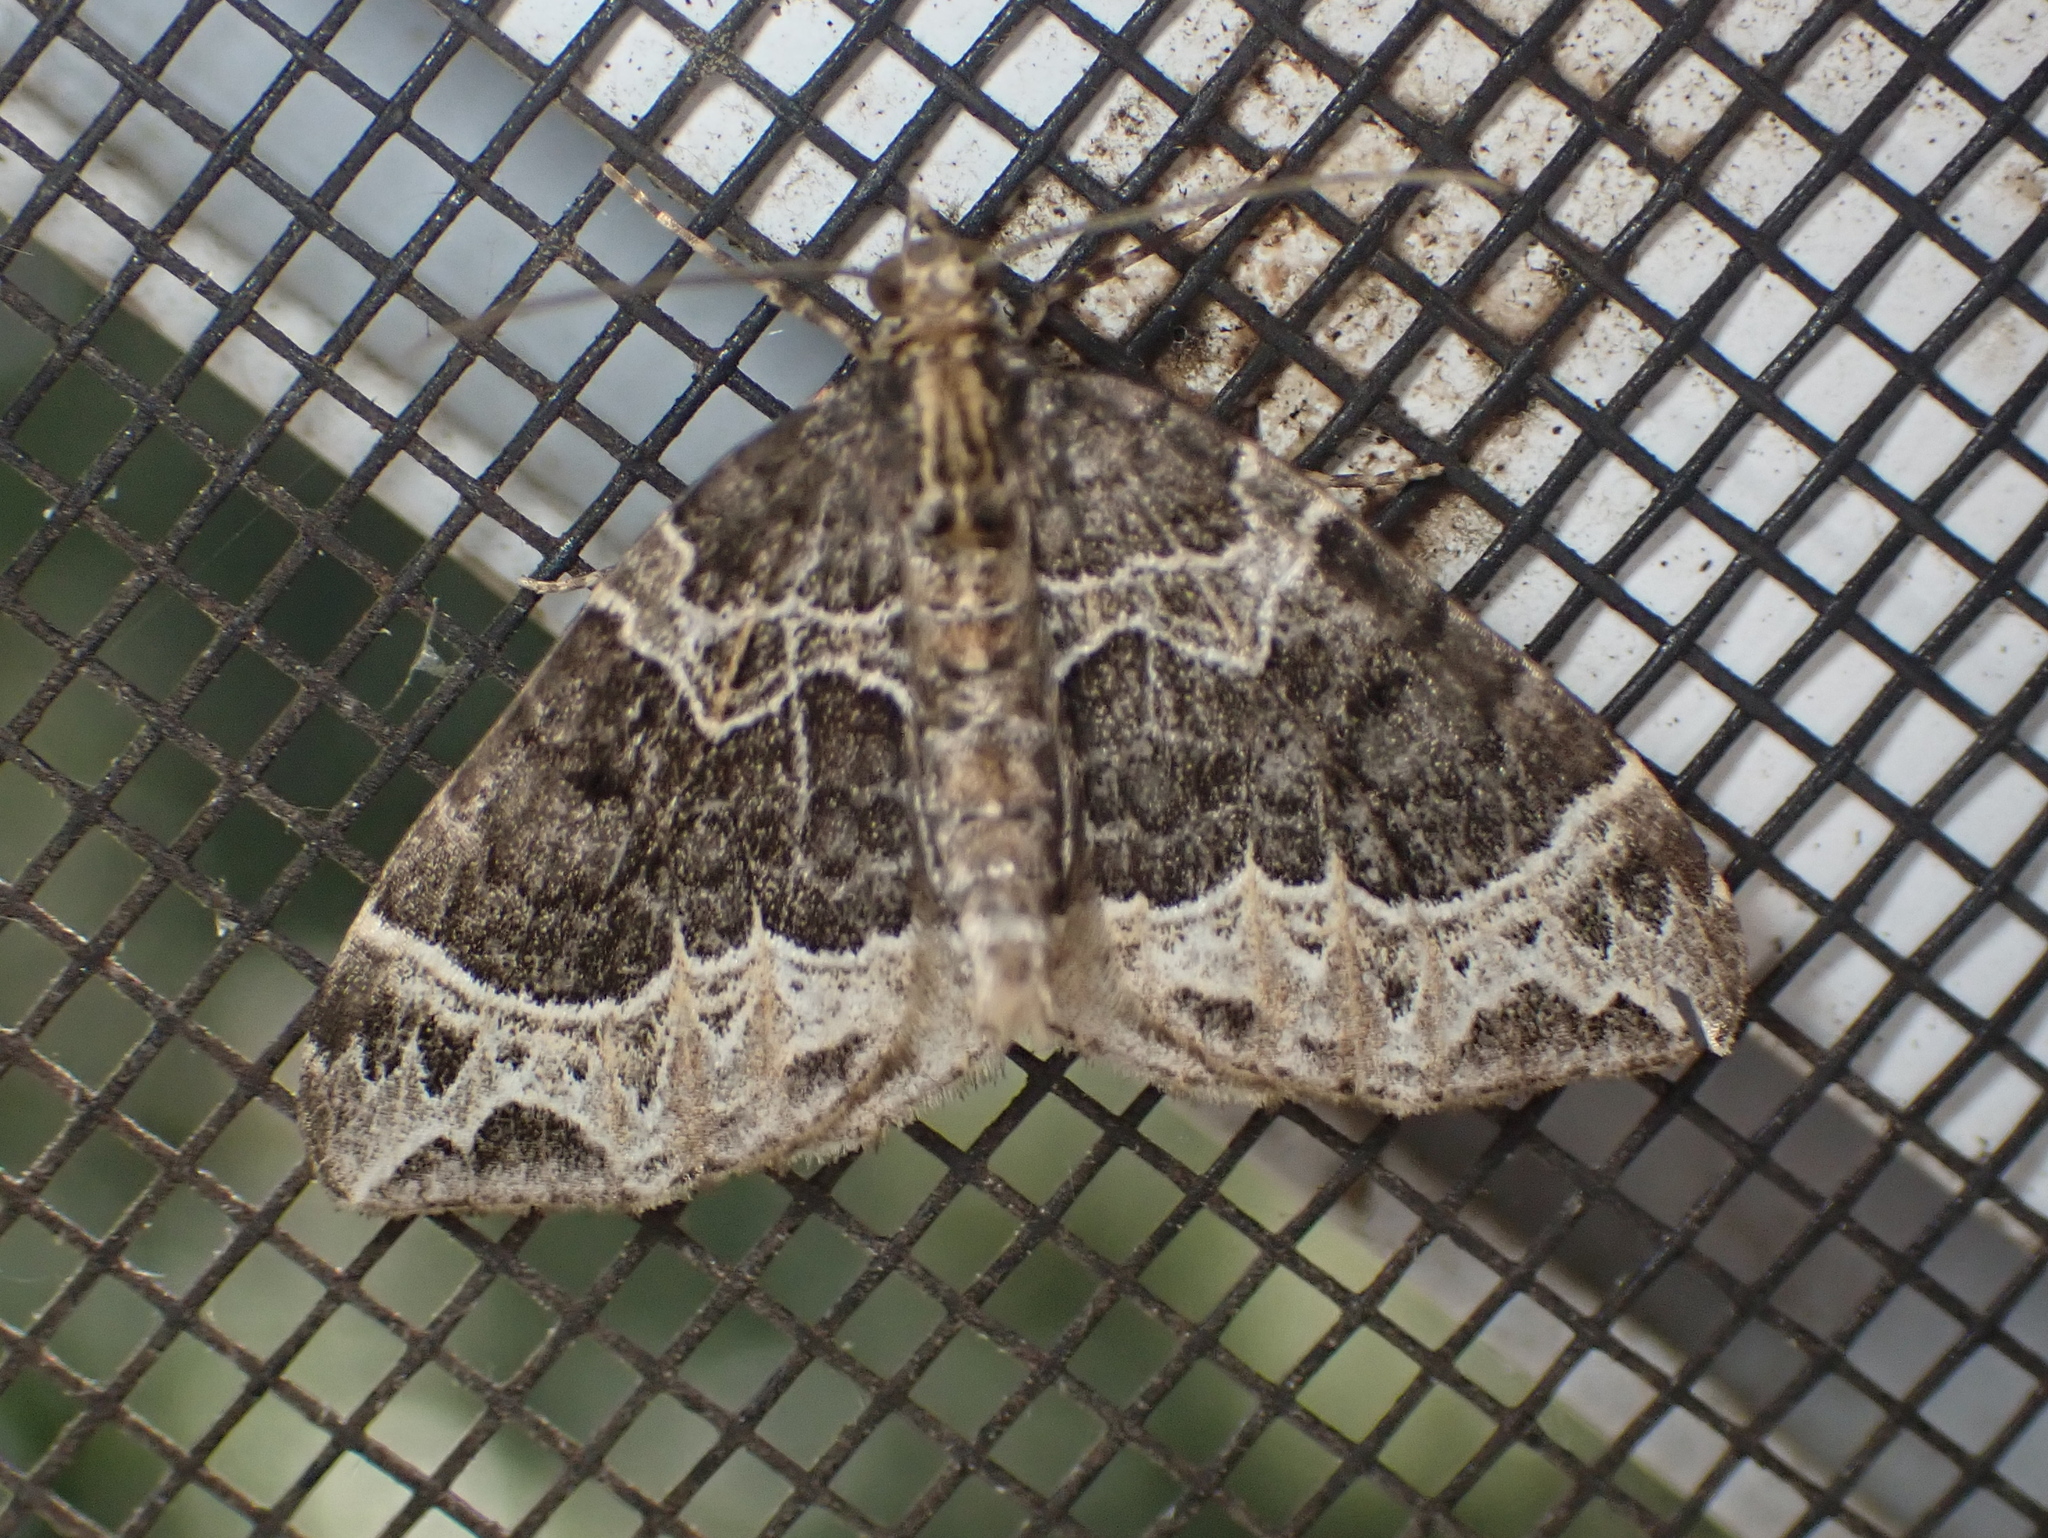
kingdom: Animalia
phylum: Arthropoda
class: Insecta
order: Lepidoptera
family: Geometridae
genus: Ecliptopera
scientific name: Ecliptopera silaceata
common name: Small phoenix
